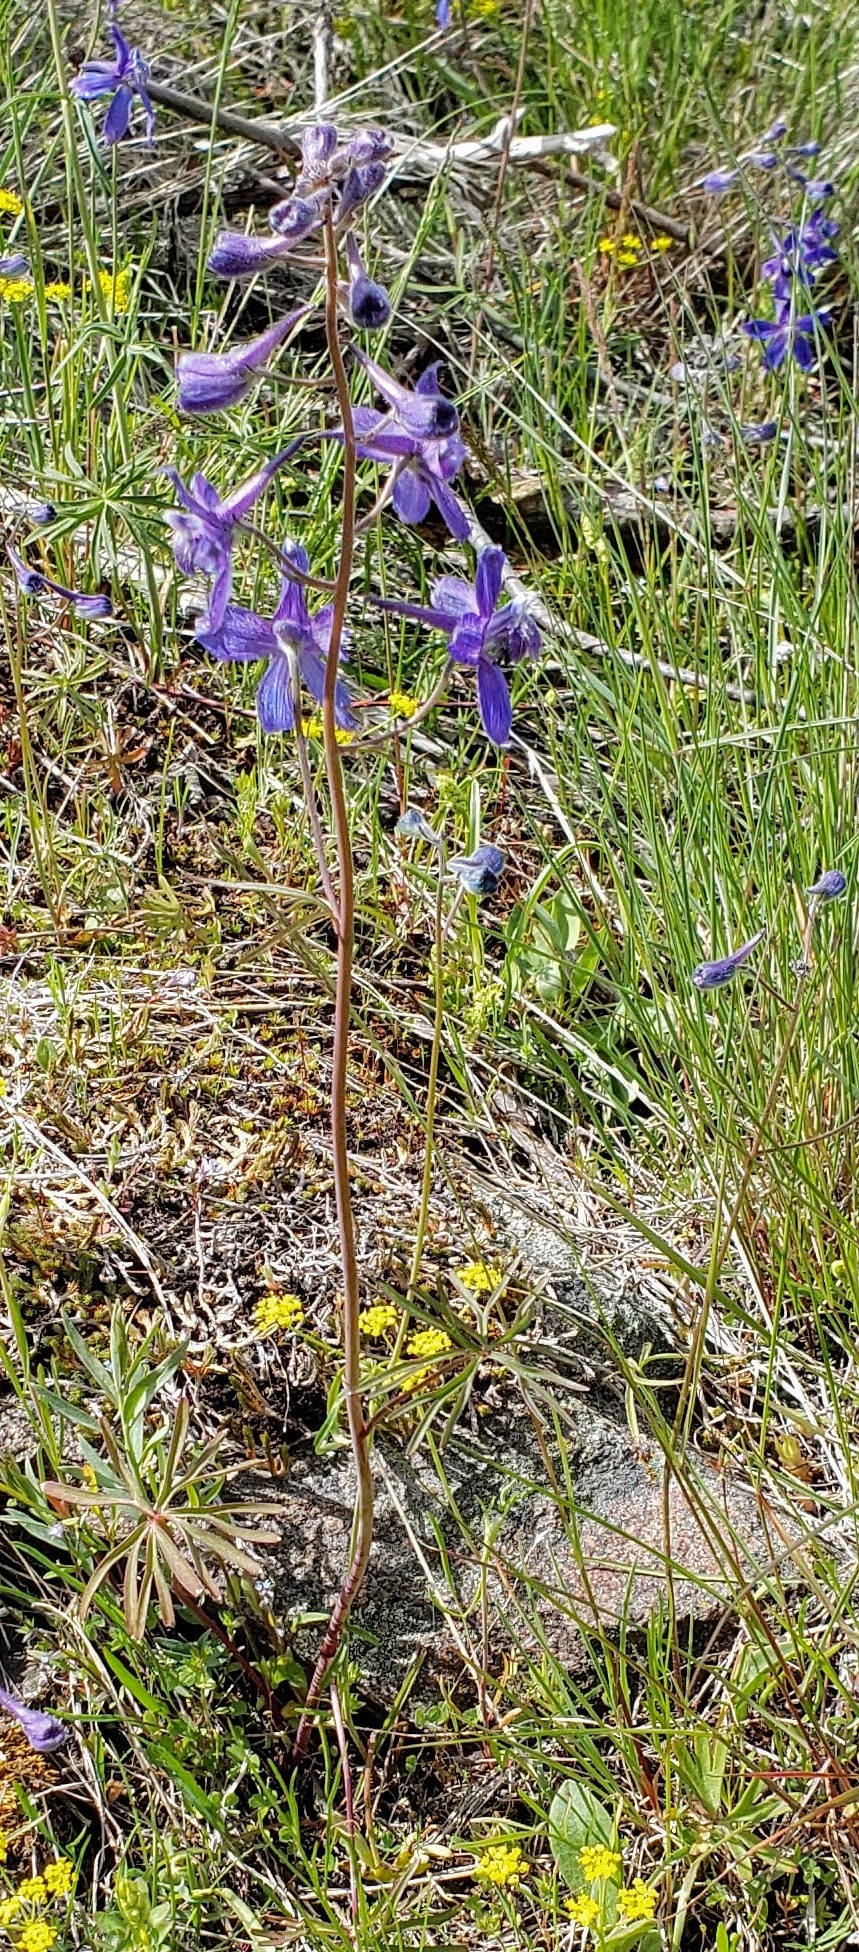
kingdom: Plantae
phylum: Tracheophyta
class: Magnoliopsida
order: Ranunculales
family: Ranunculaceae
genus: Delphinium
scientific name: Delphinium nuttallianum
